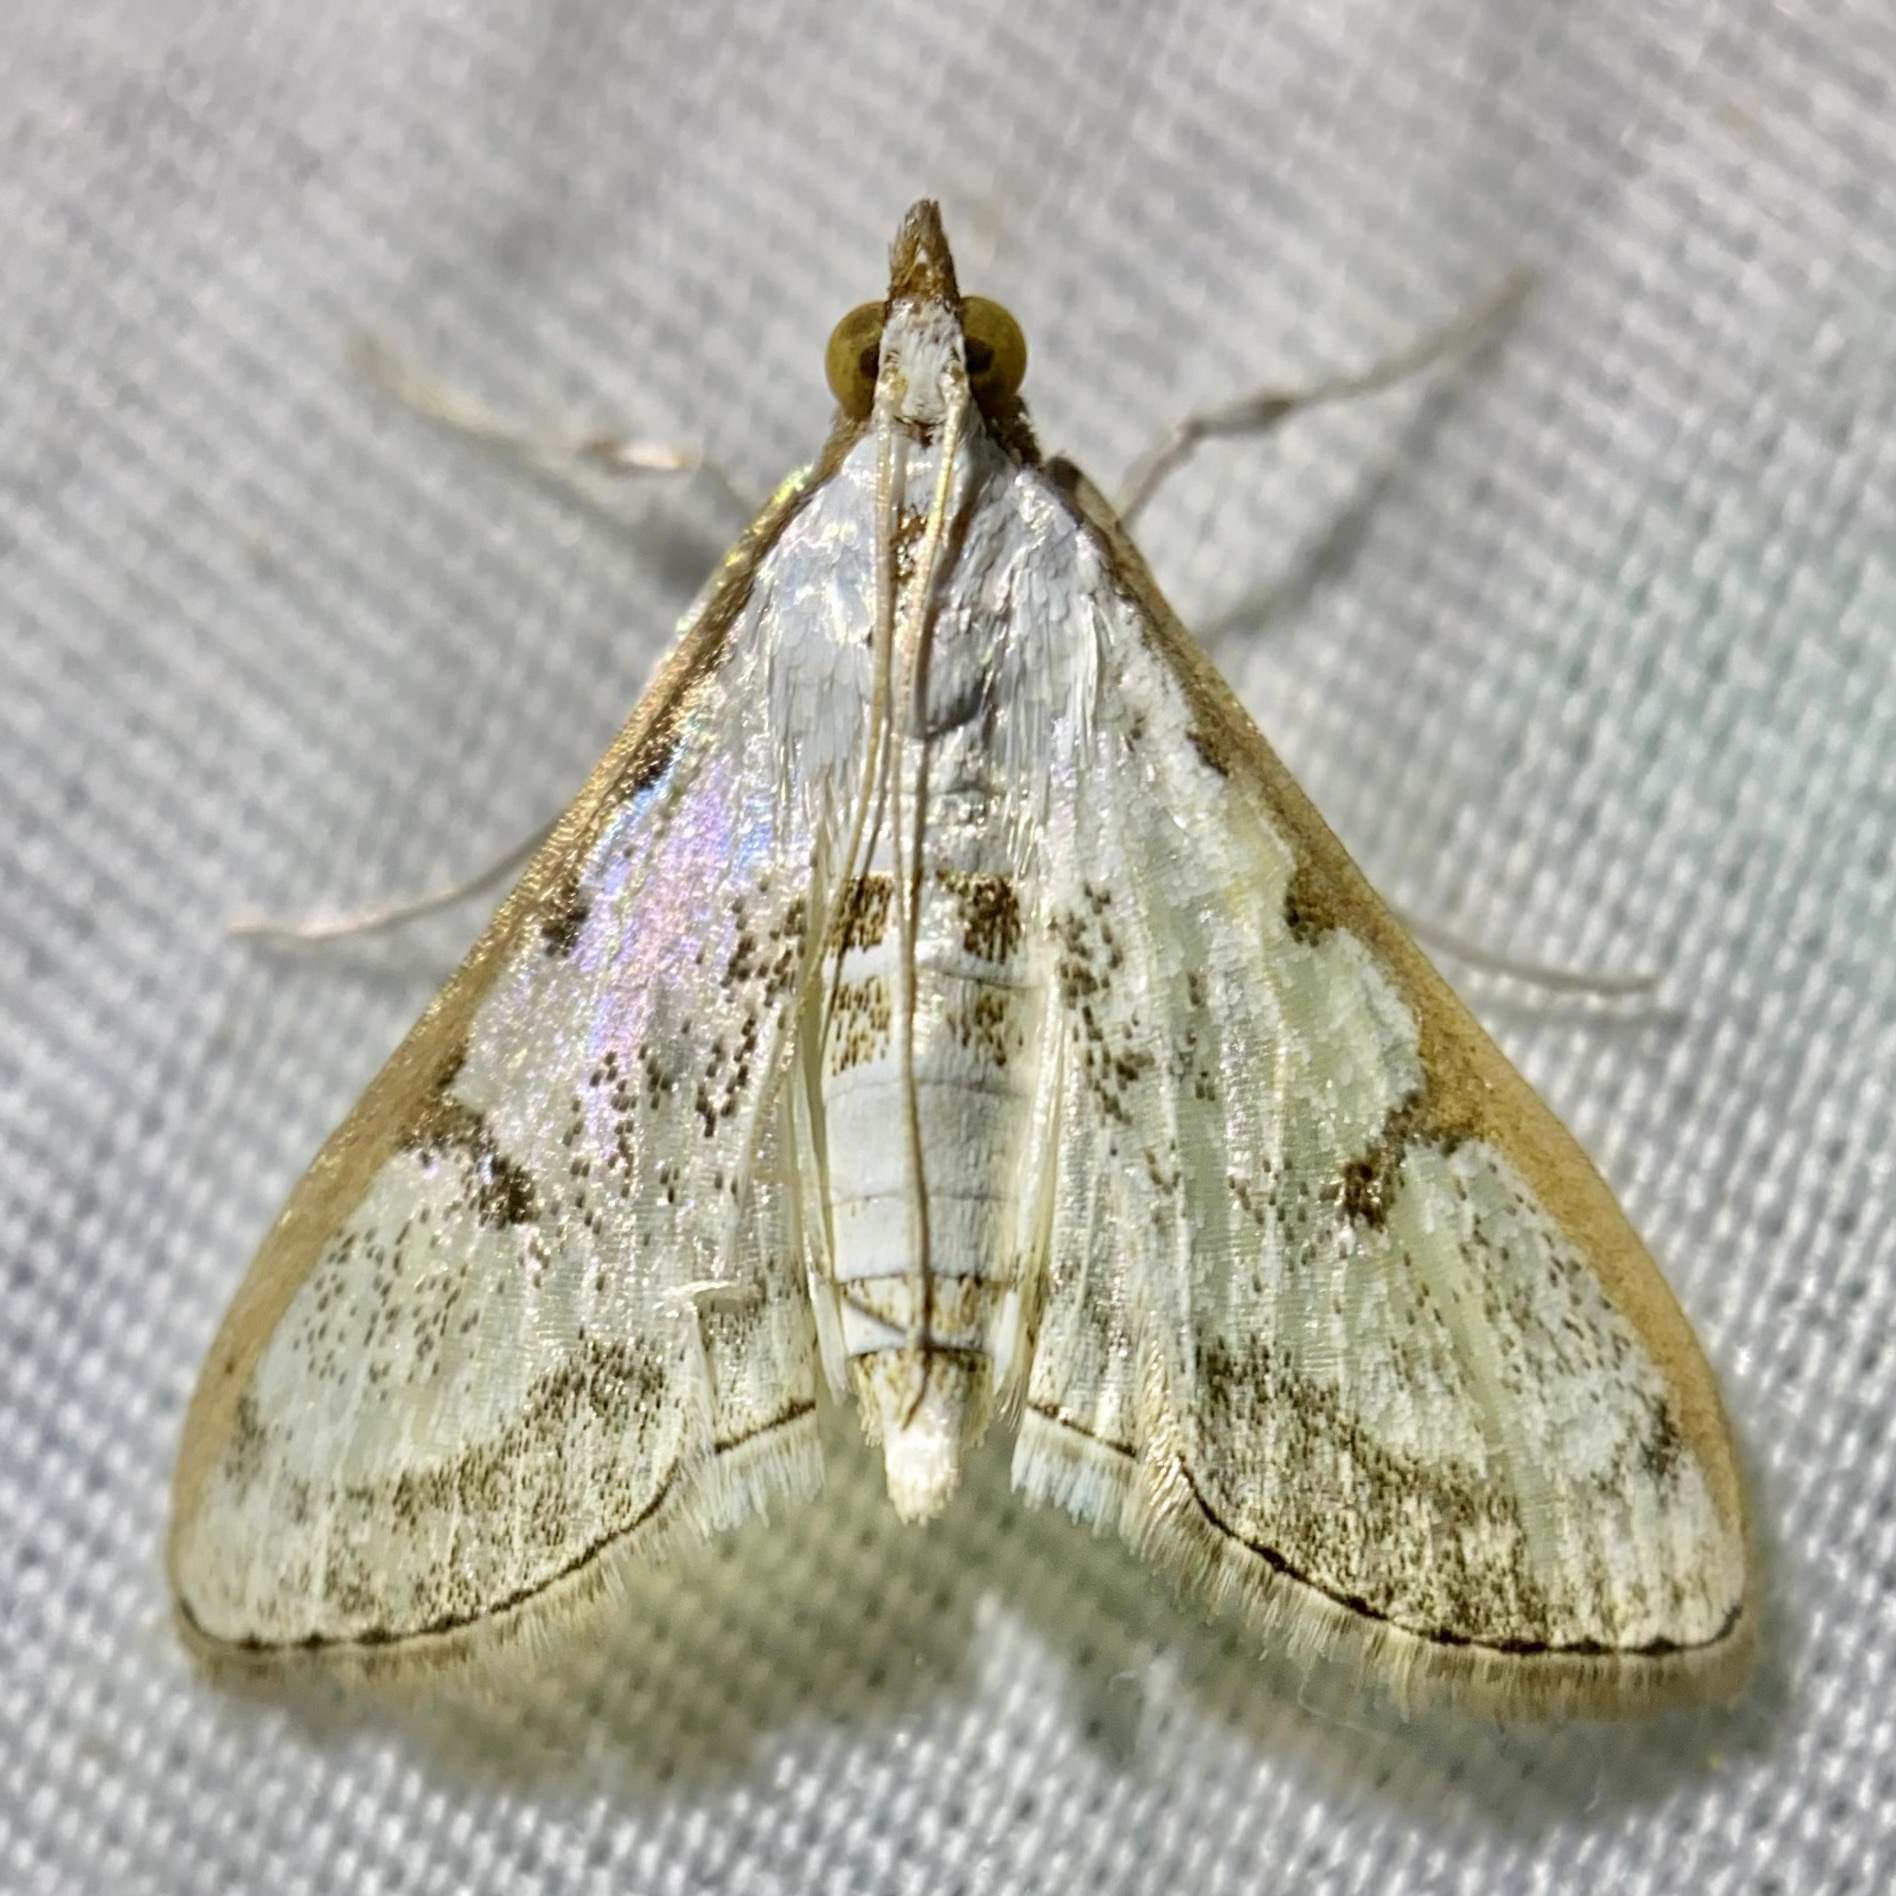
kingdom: Animalia
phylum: Arthropoda
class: Insecta
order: Lepidoptera
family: Crambidae
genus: Palpita
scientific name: Palpita gracilalis
